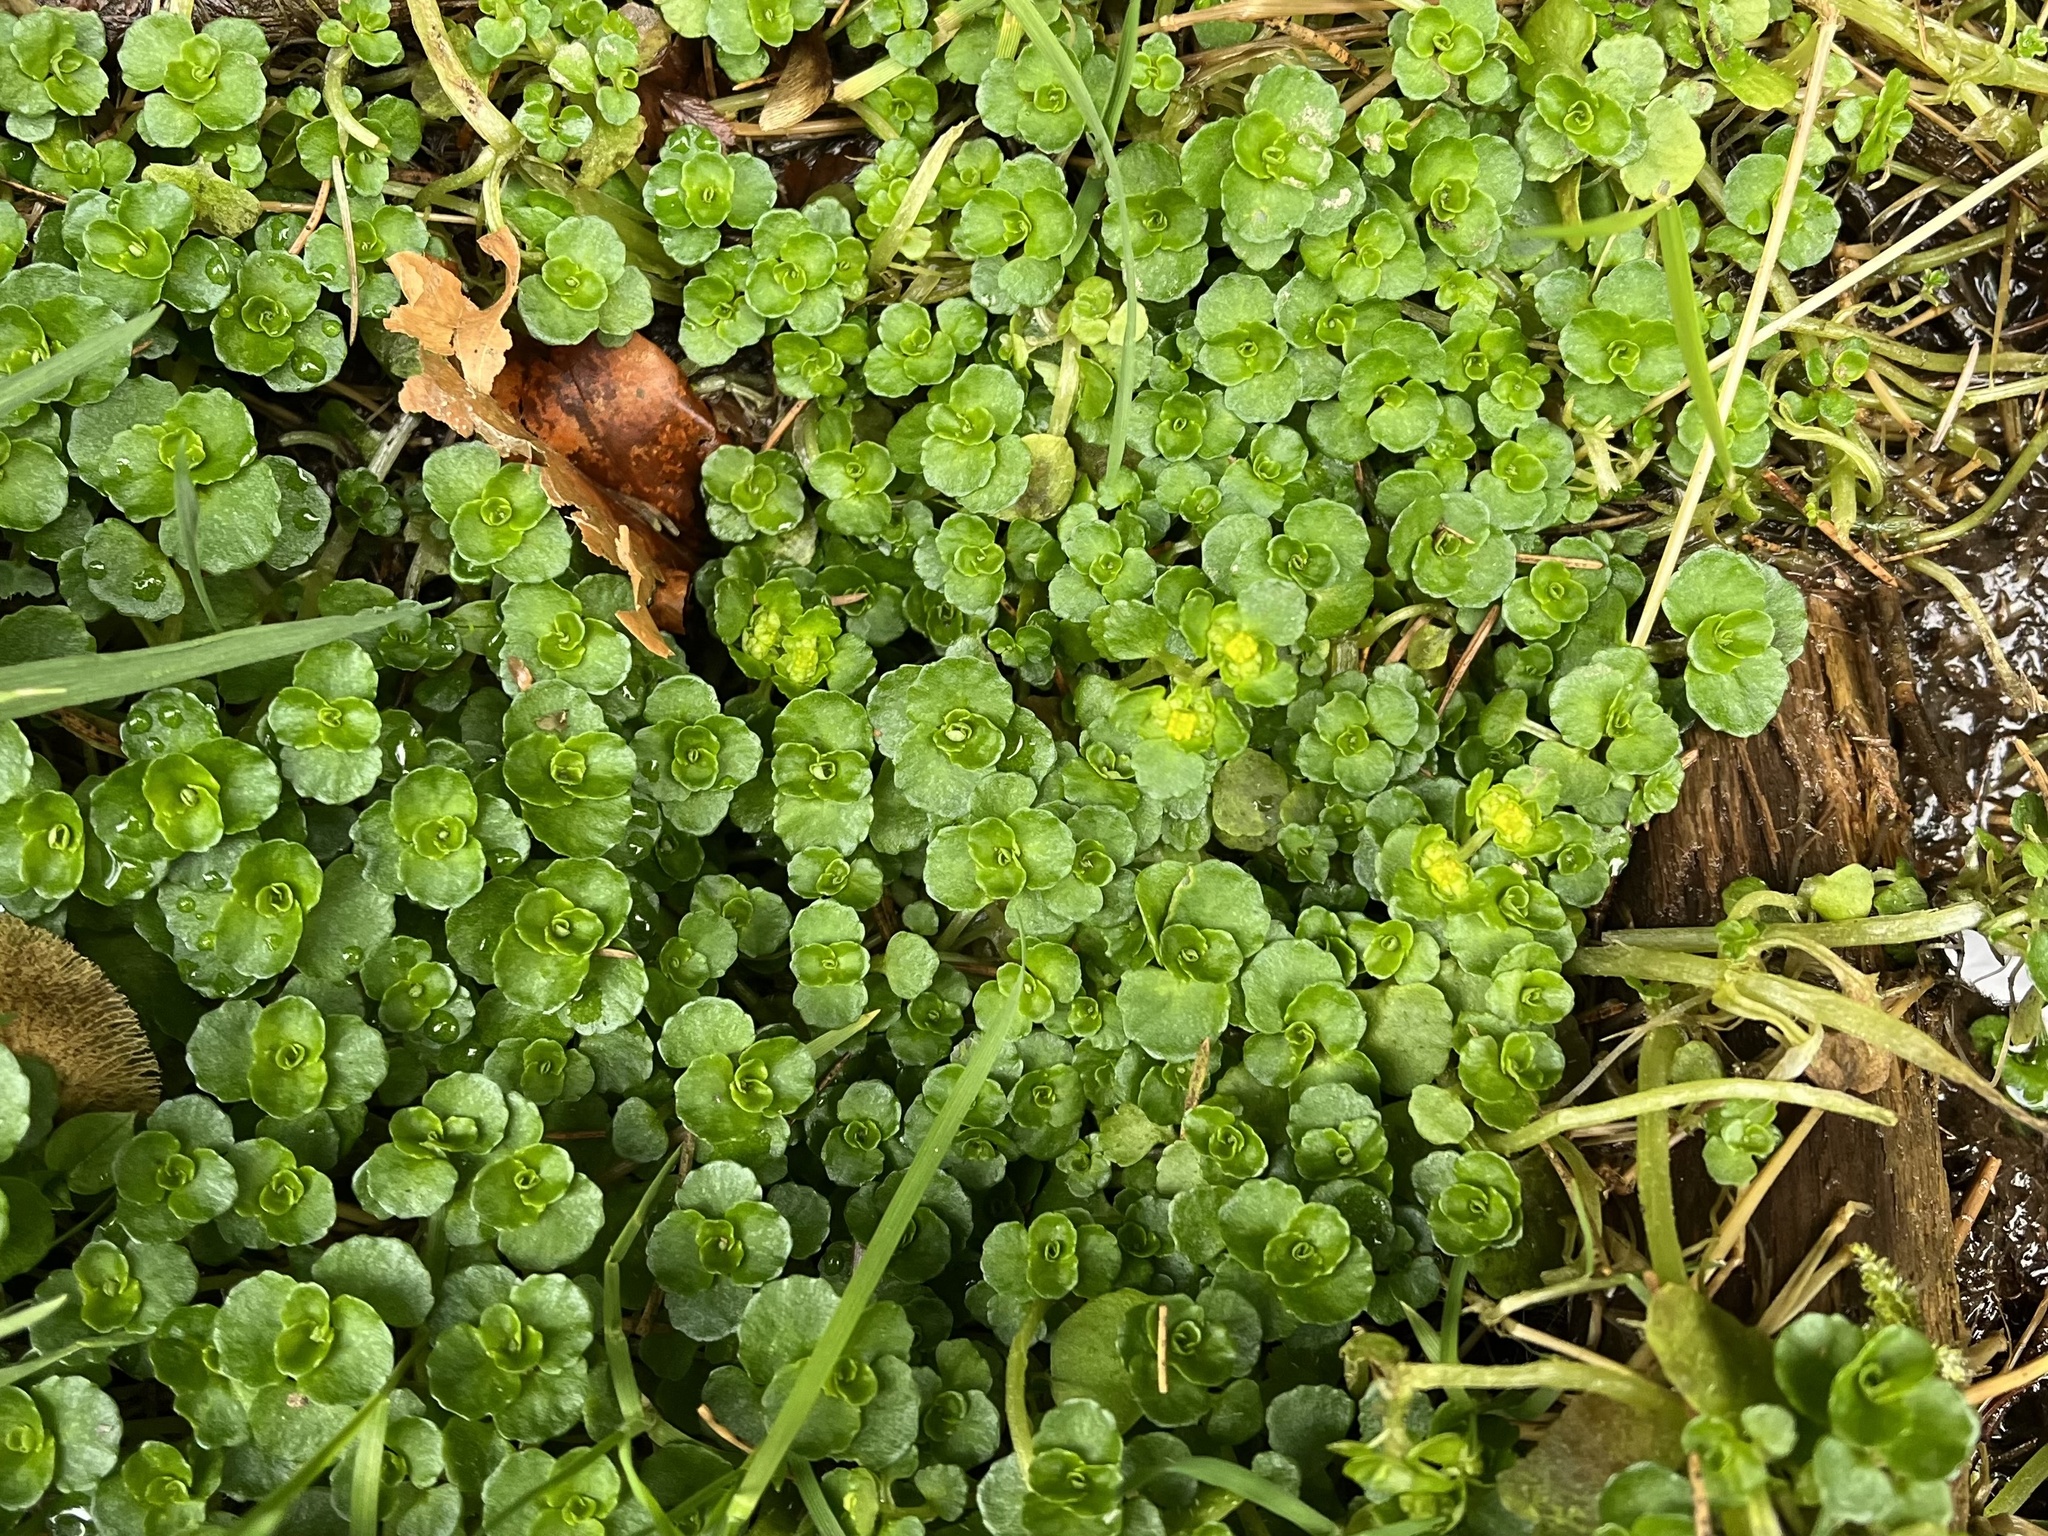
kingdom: Plantae
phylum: Tracheophyta
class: Magnoliopsida
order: Saxifragales
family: Saxifragaceae
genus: Chrysosplenium
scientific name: Chrysosplenium oppositifolium
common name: Opposite-leaved golden-saxifrage
